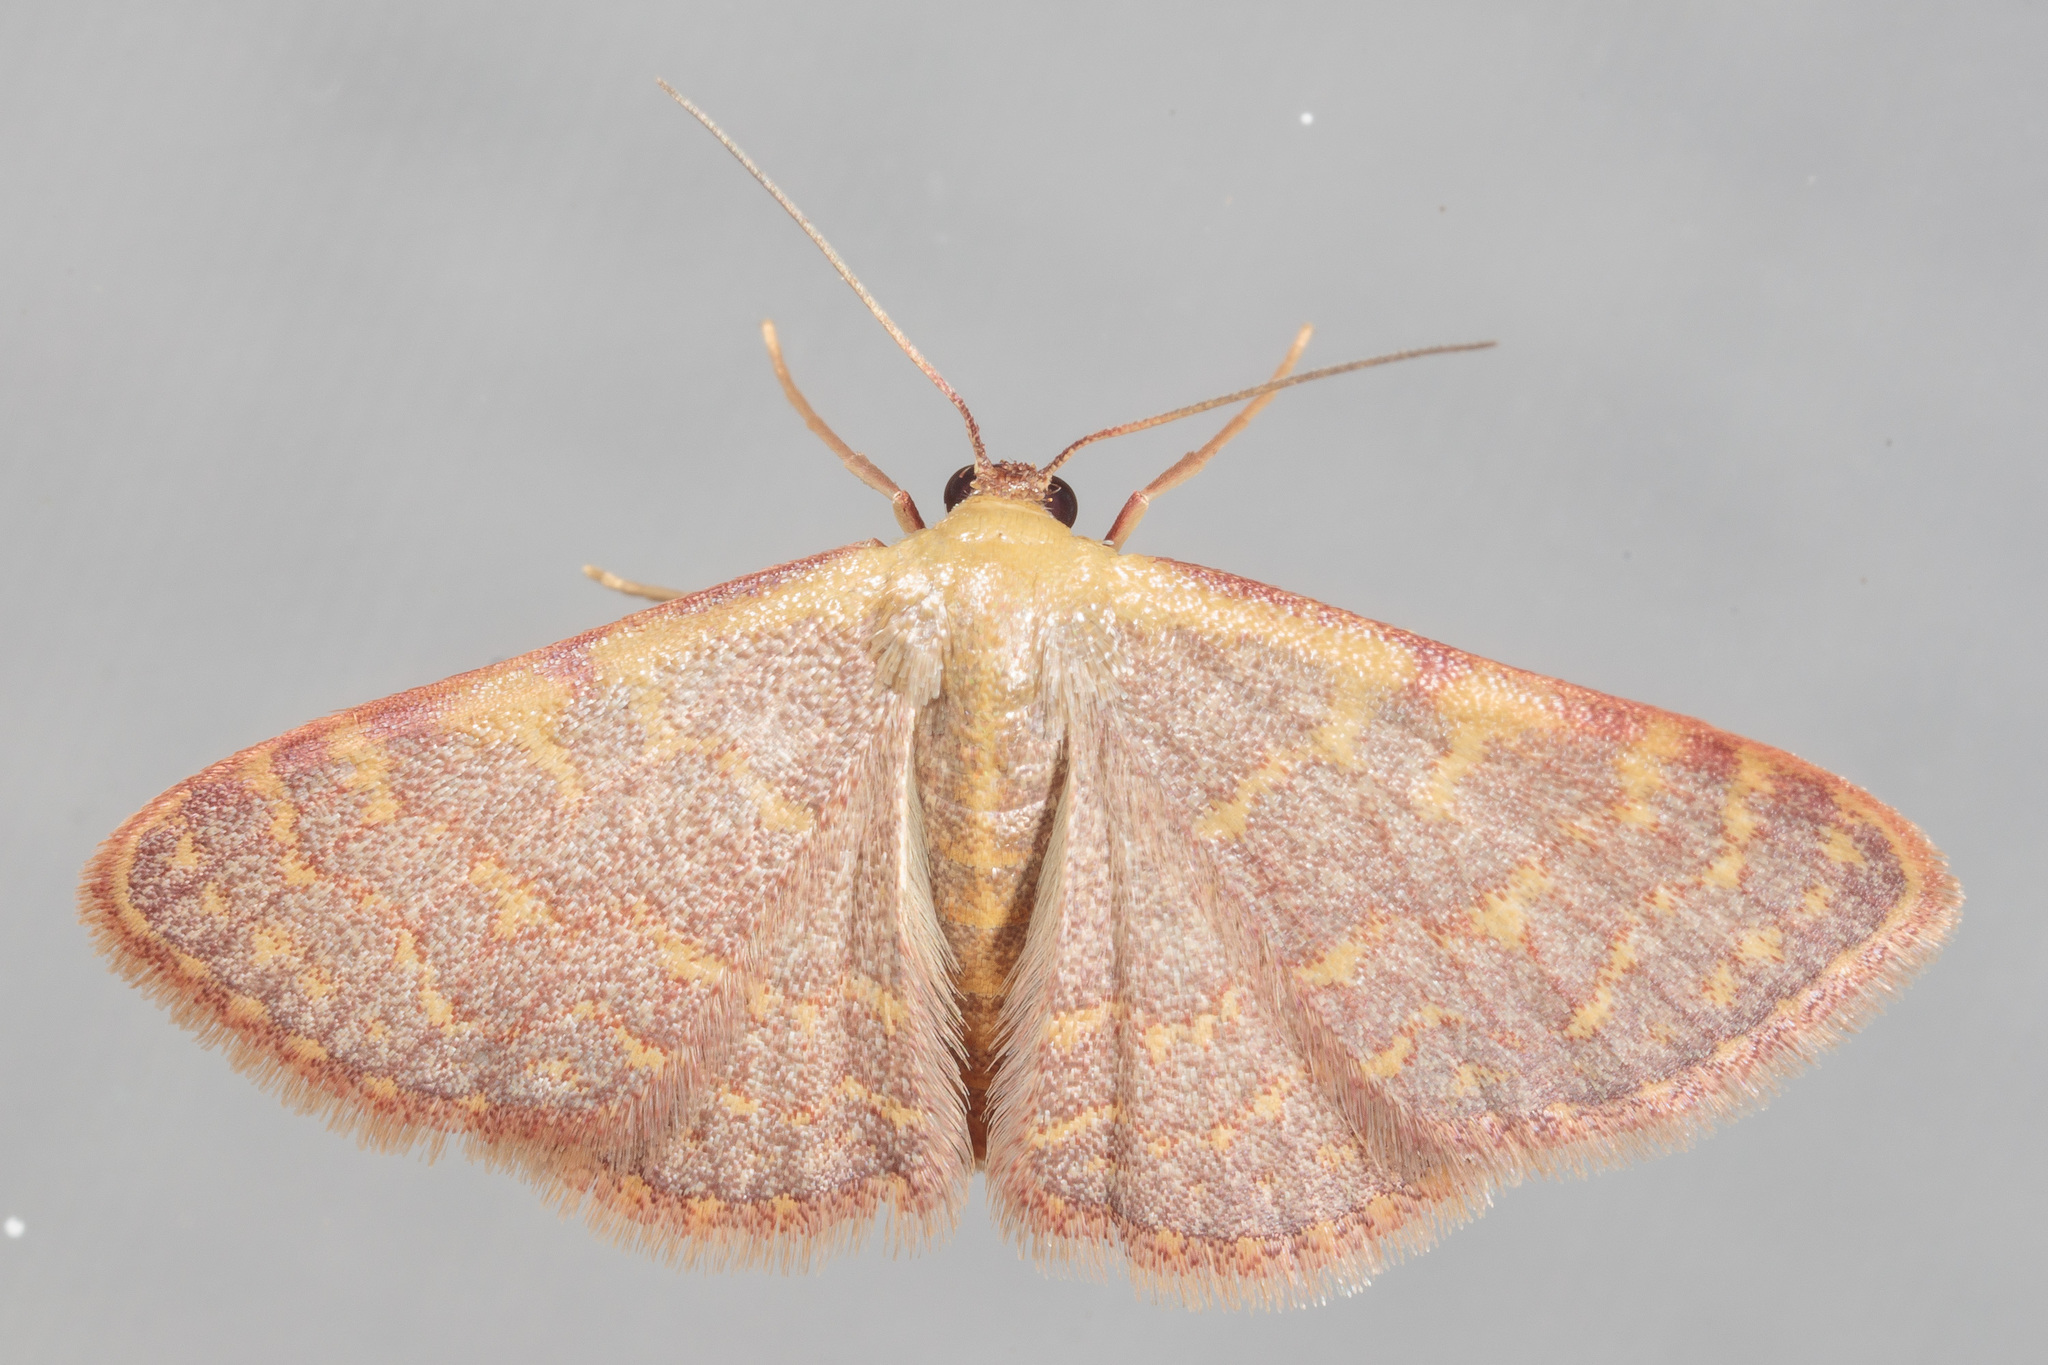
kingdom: Animalia
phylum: Arthropoda
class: Insecta
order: Lepidoptera
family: Geometridae
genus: Leptostales
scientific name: Leptostales pannaria
